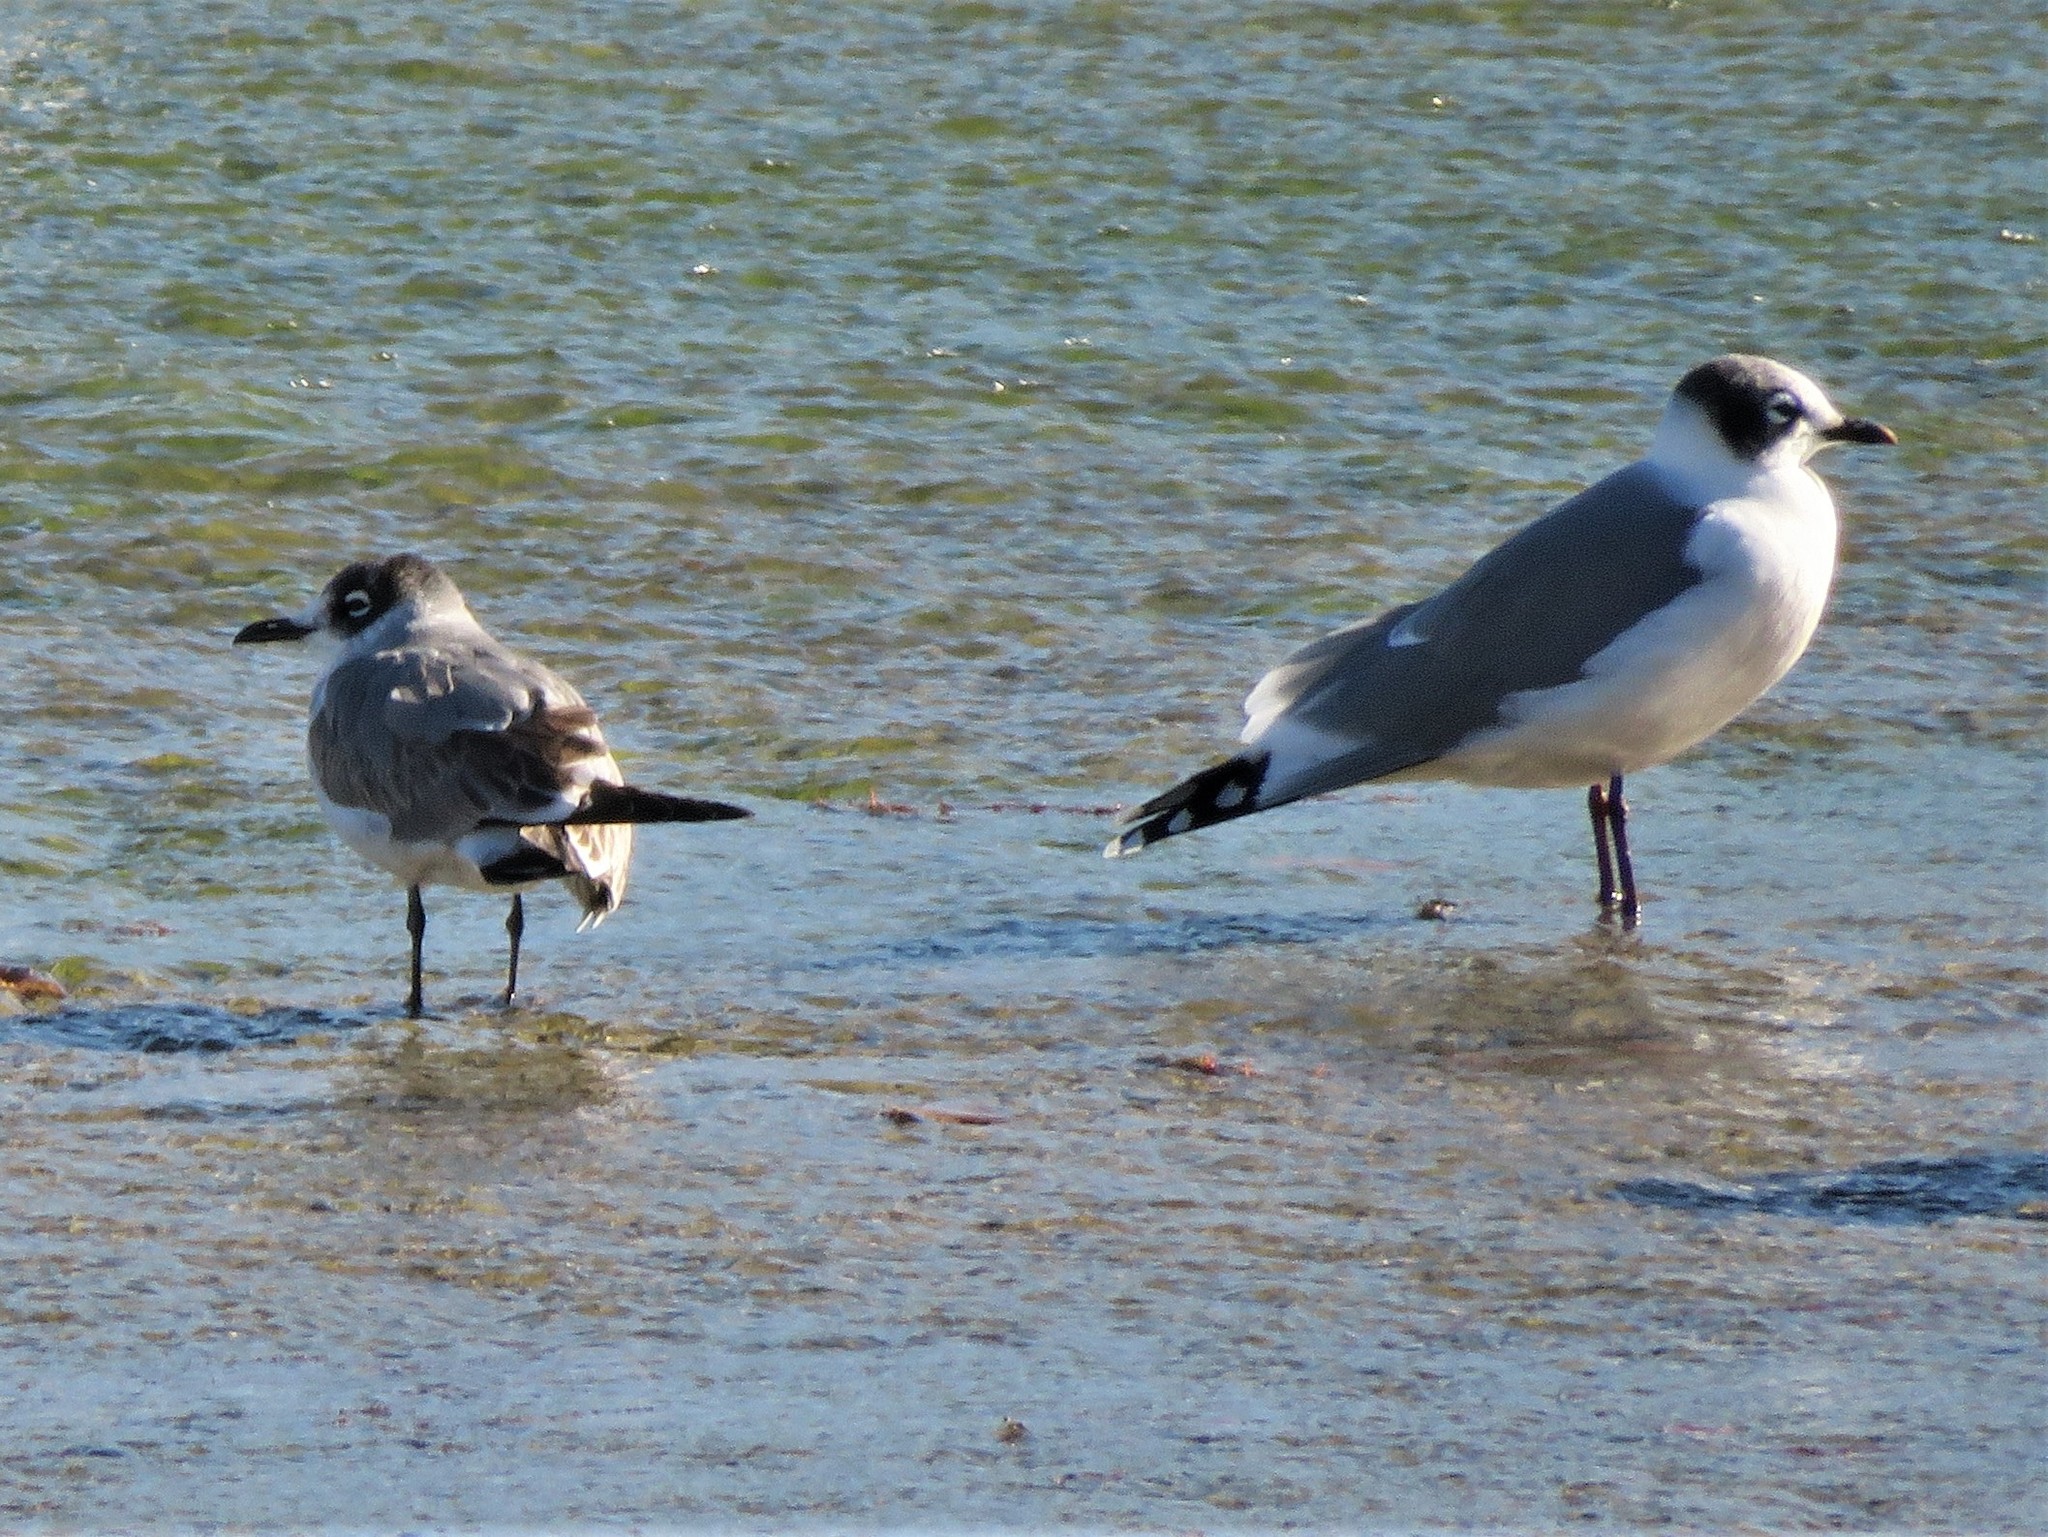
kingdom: Animalia
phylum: Chordata
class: Aves
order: Charadriiformes
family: Laridae
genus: Leucophaeus
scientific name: Leucophaeus pipixcan
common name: Franklin's gull
